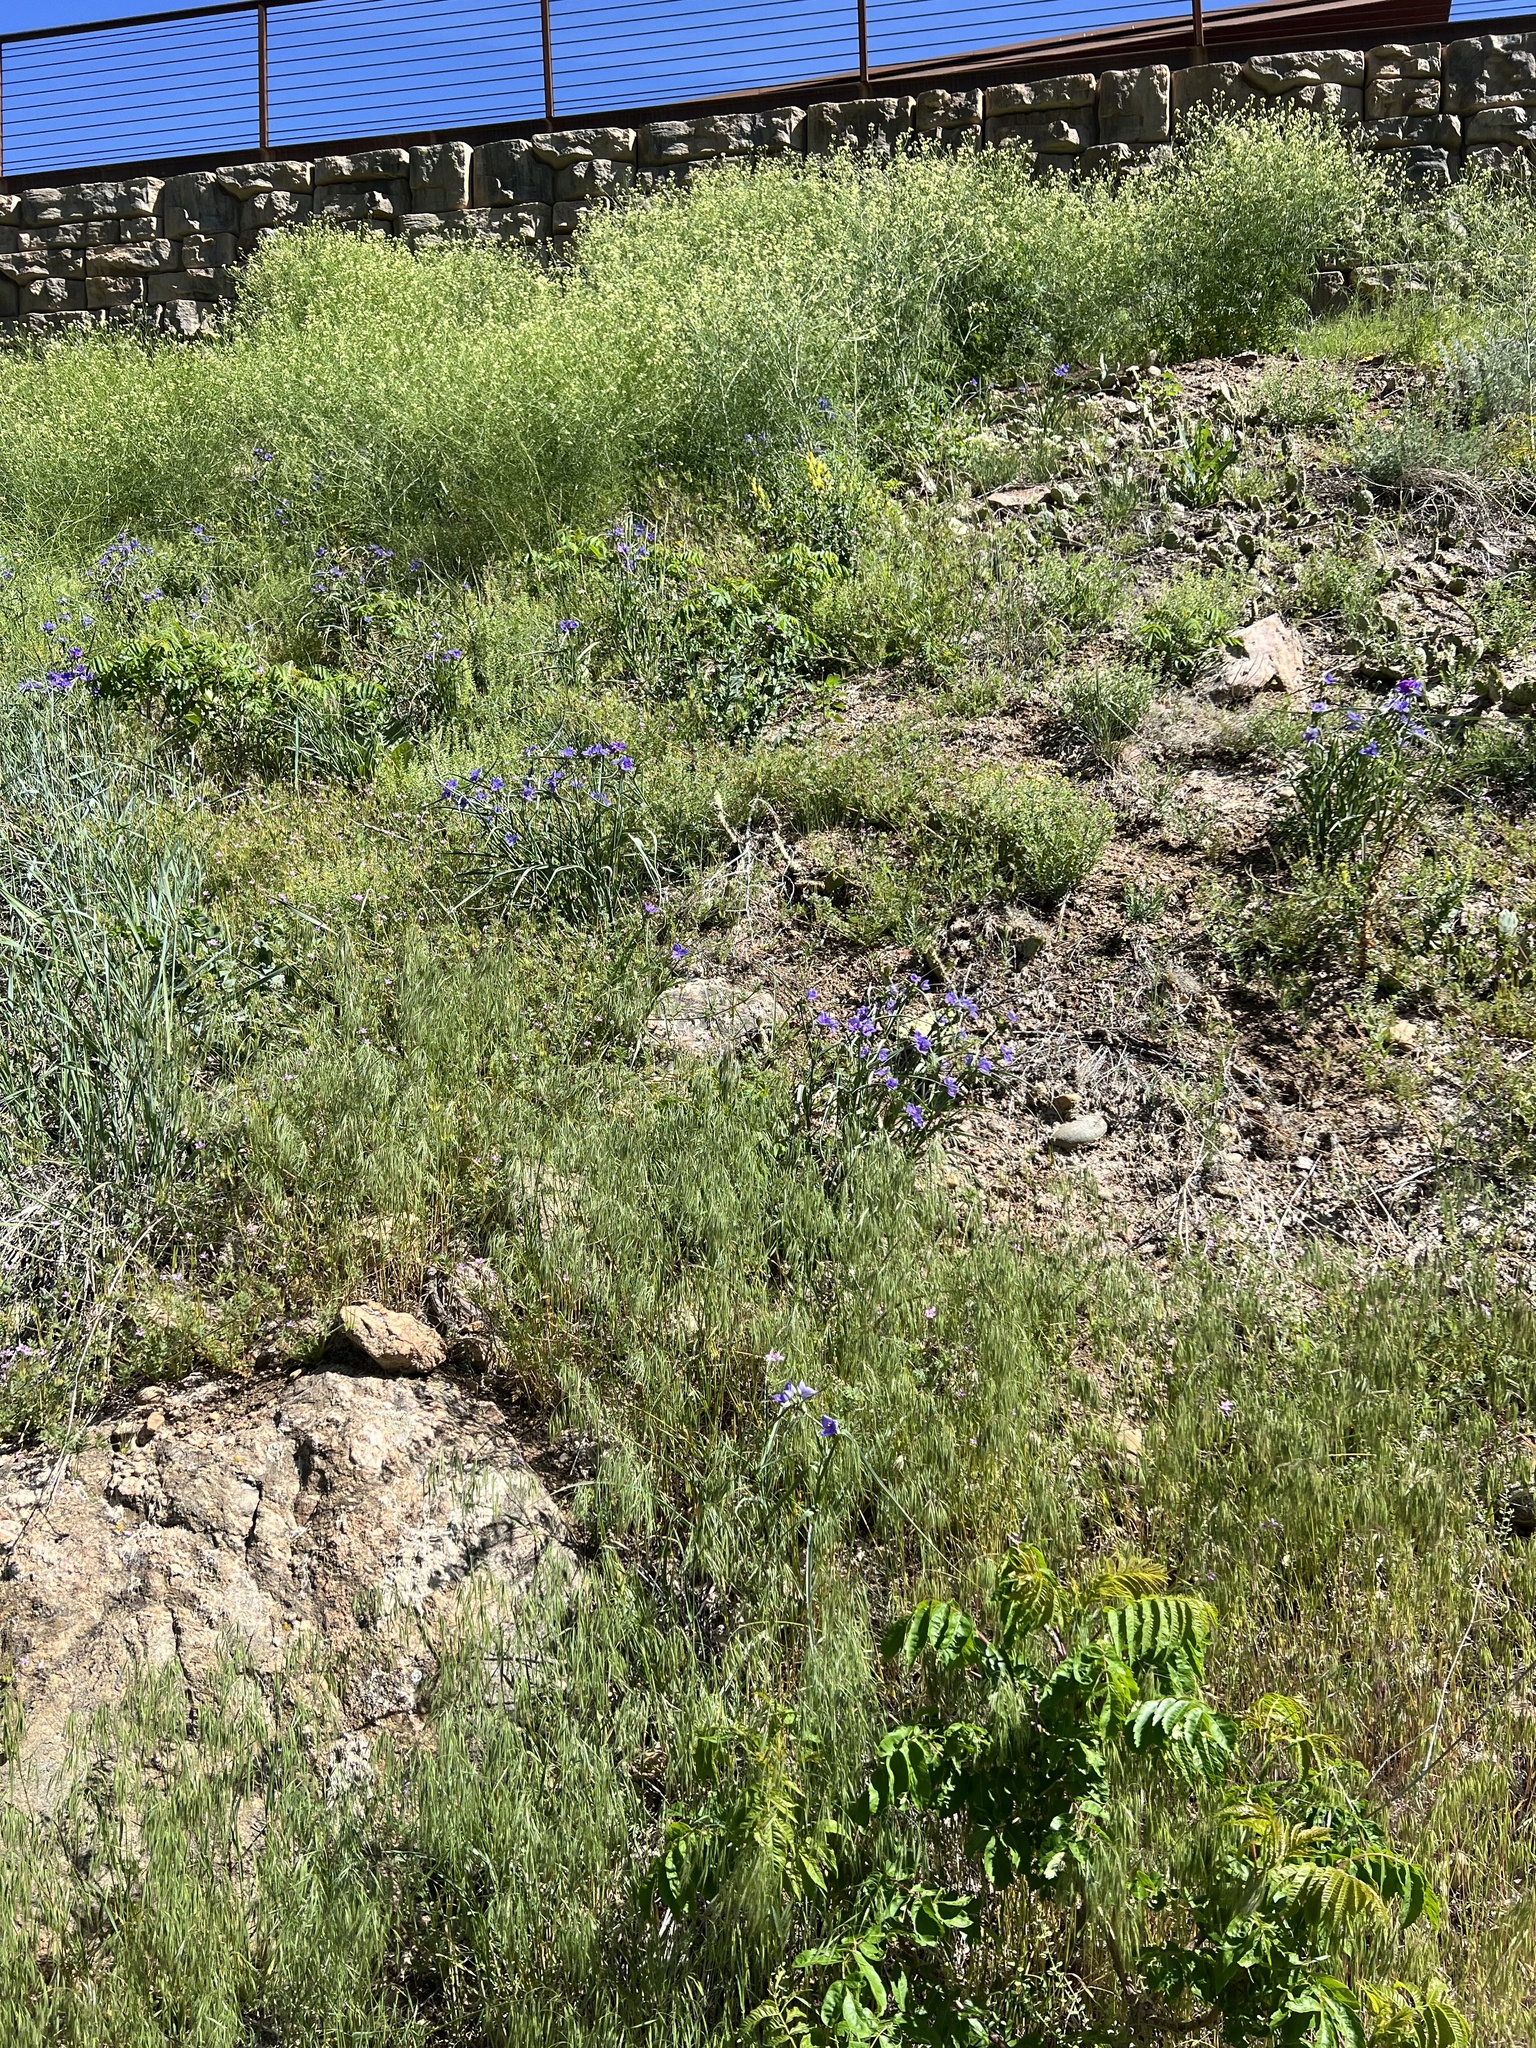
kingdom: Plantae
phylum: Tracheophyta
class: Liliopsida
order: Commelinales
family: Commelinaceae
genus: Tradescantia
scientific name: Tradescantia occidentalis
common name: Prairie spiderwort
